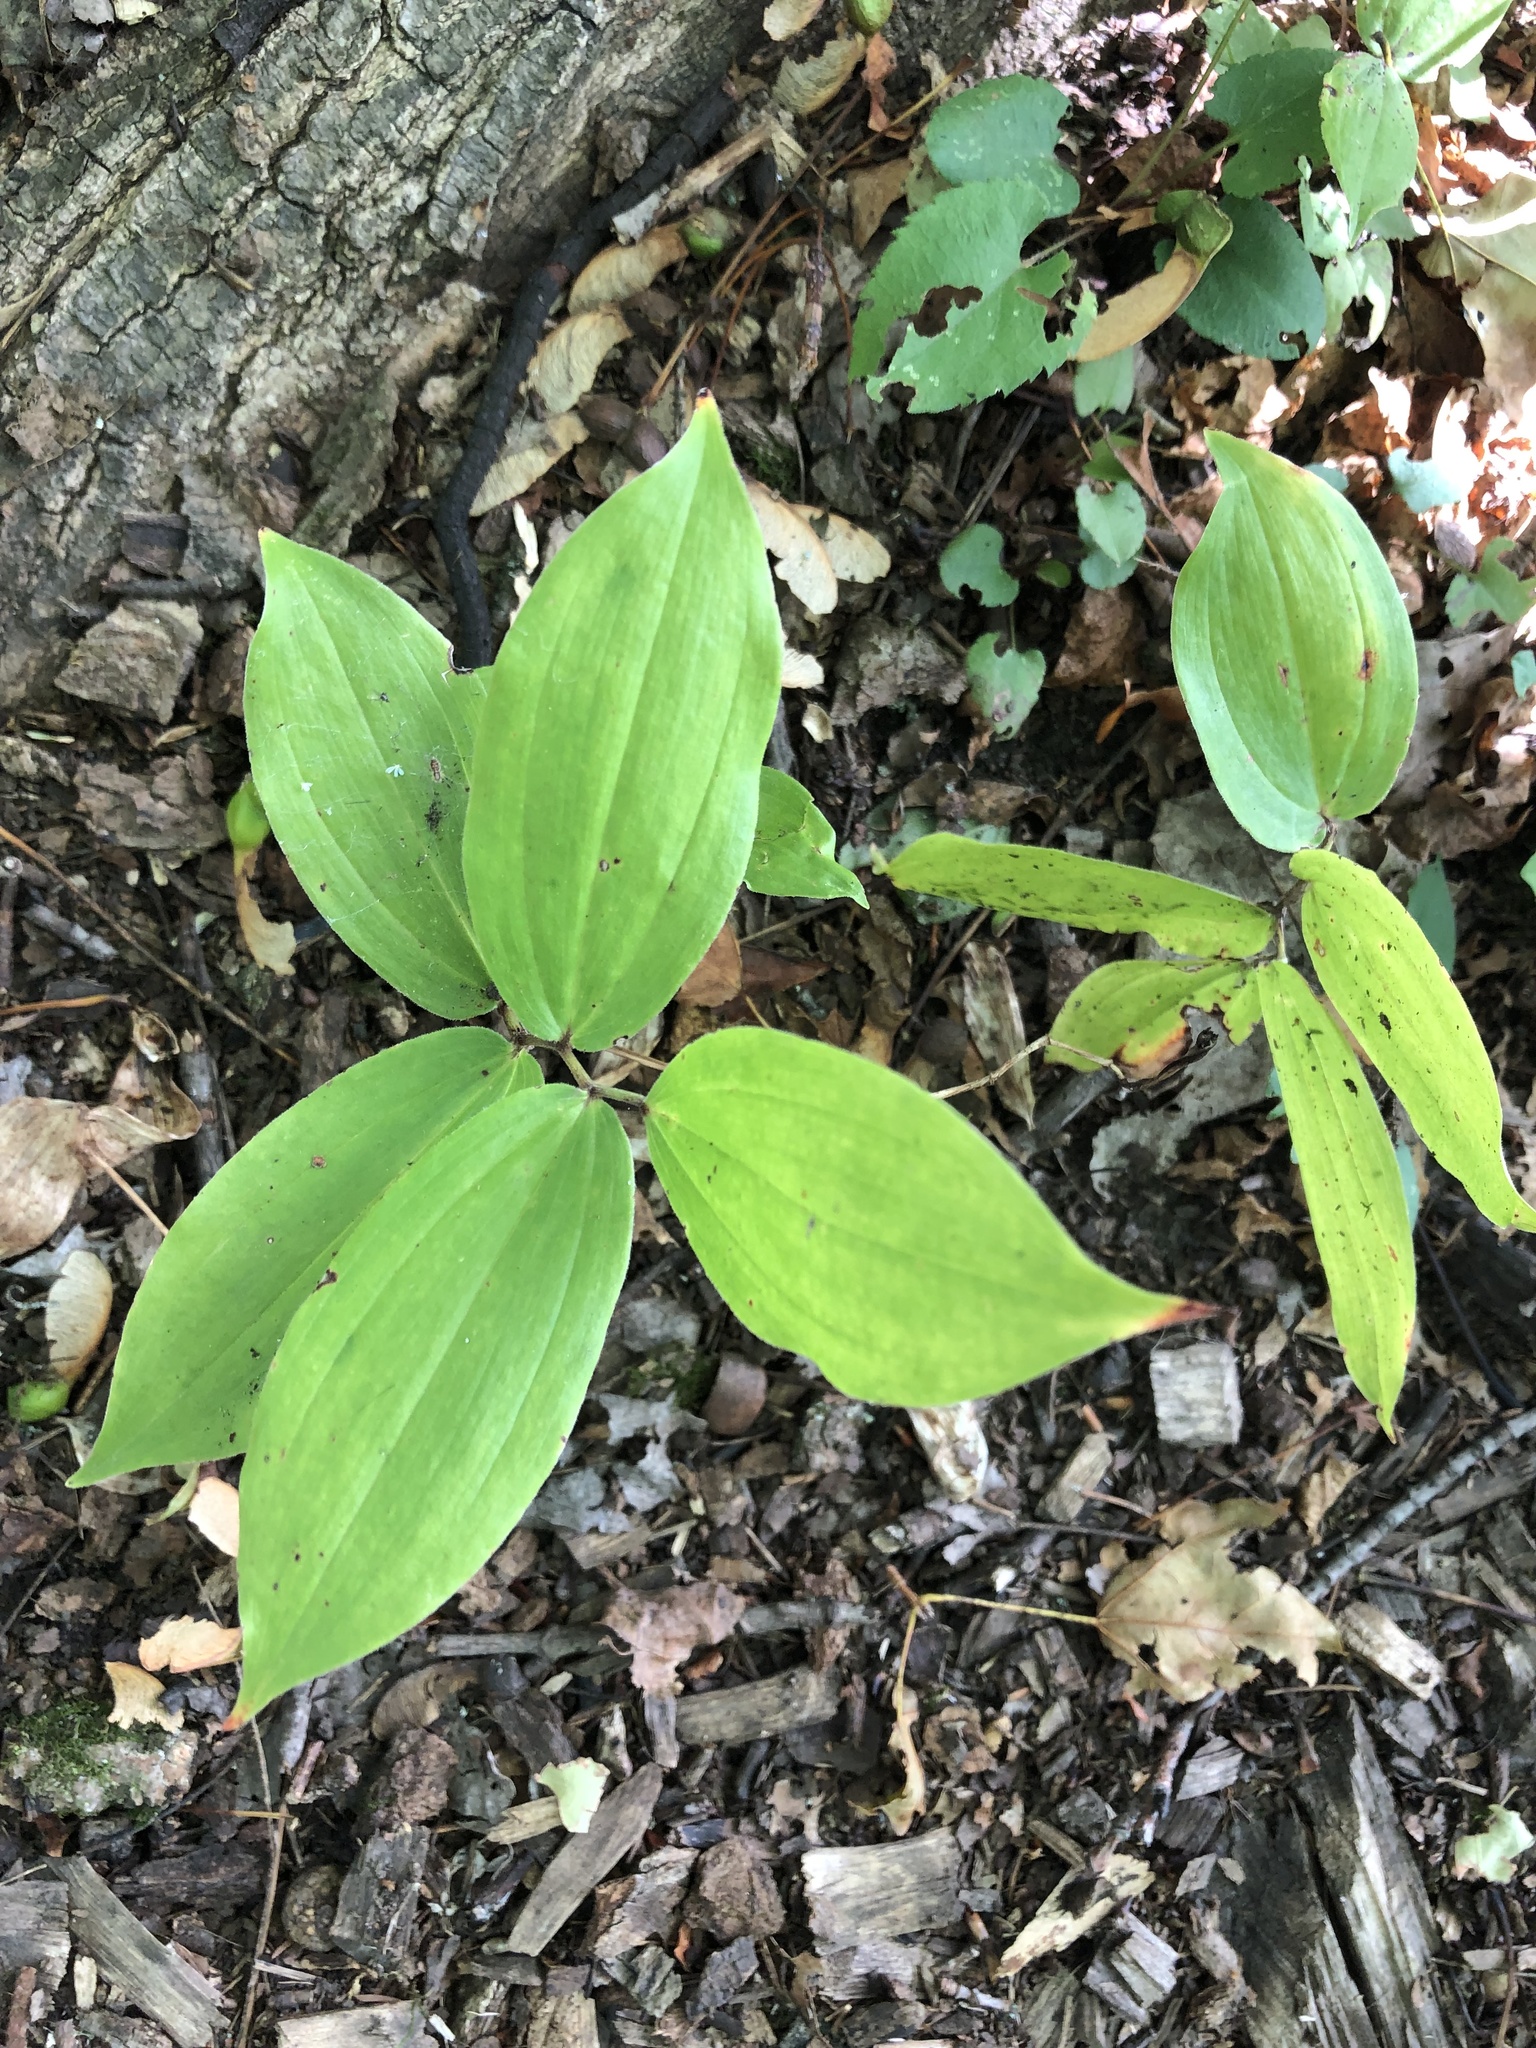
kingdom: Plantae
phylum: Tracheophyta
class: Liliopsida
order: Asparagales
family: Asparagaceae
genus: Maianthemum
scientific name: Maianthemum racemosum
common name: False spikenard
